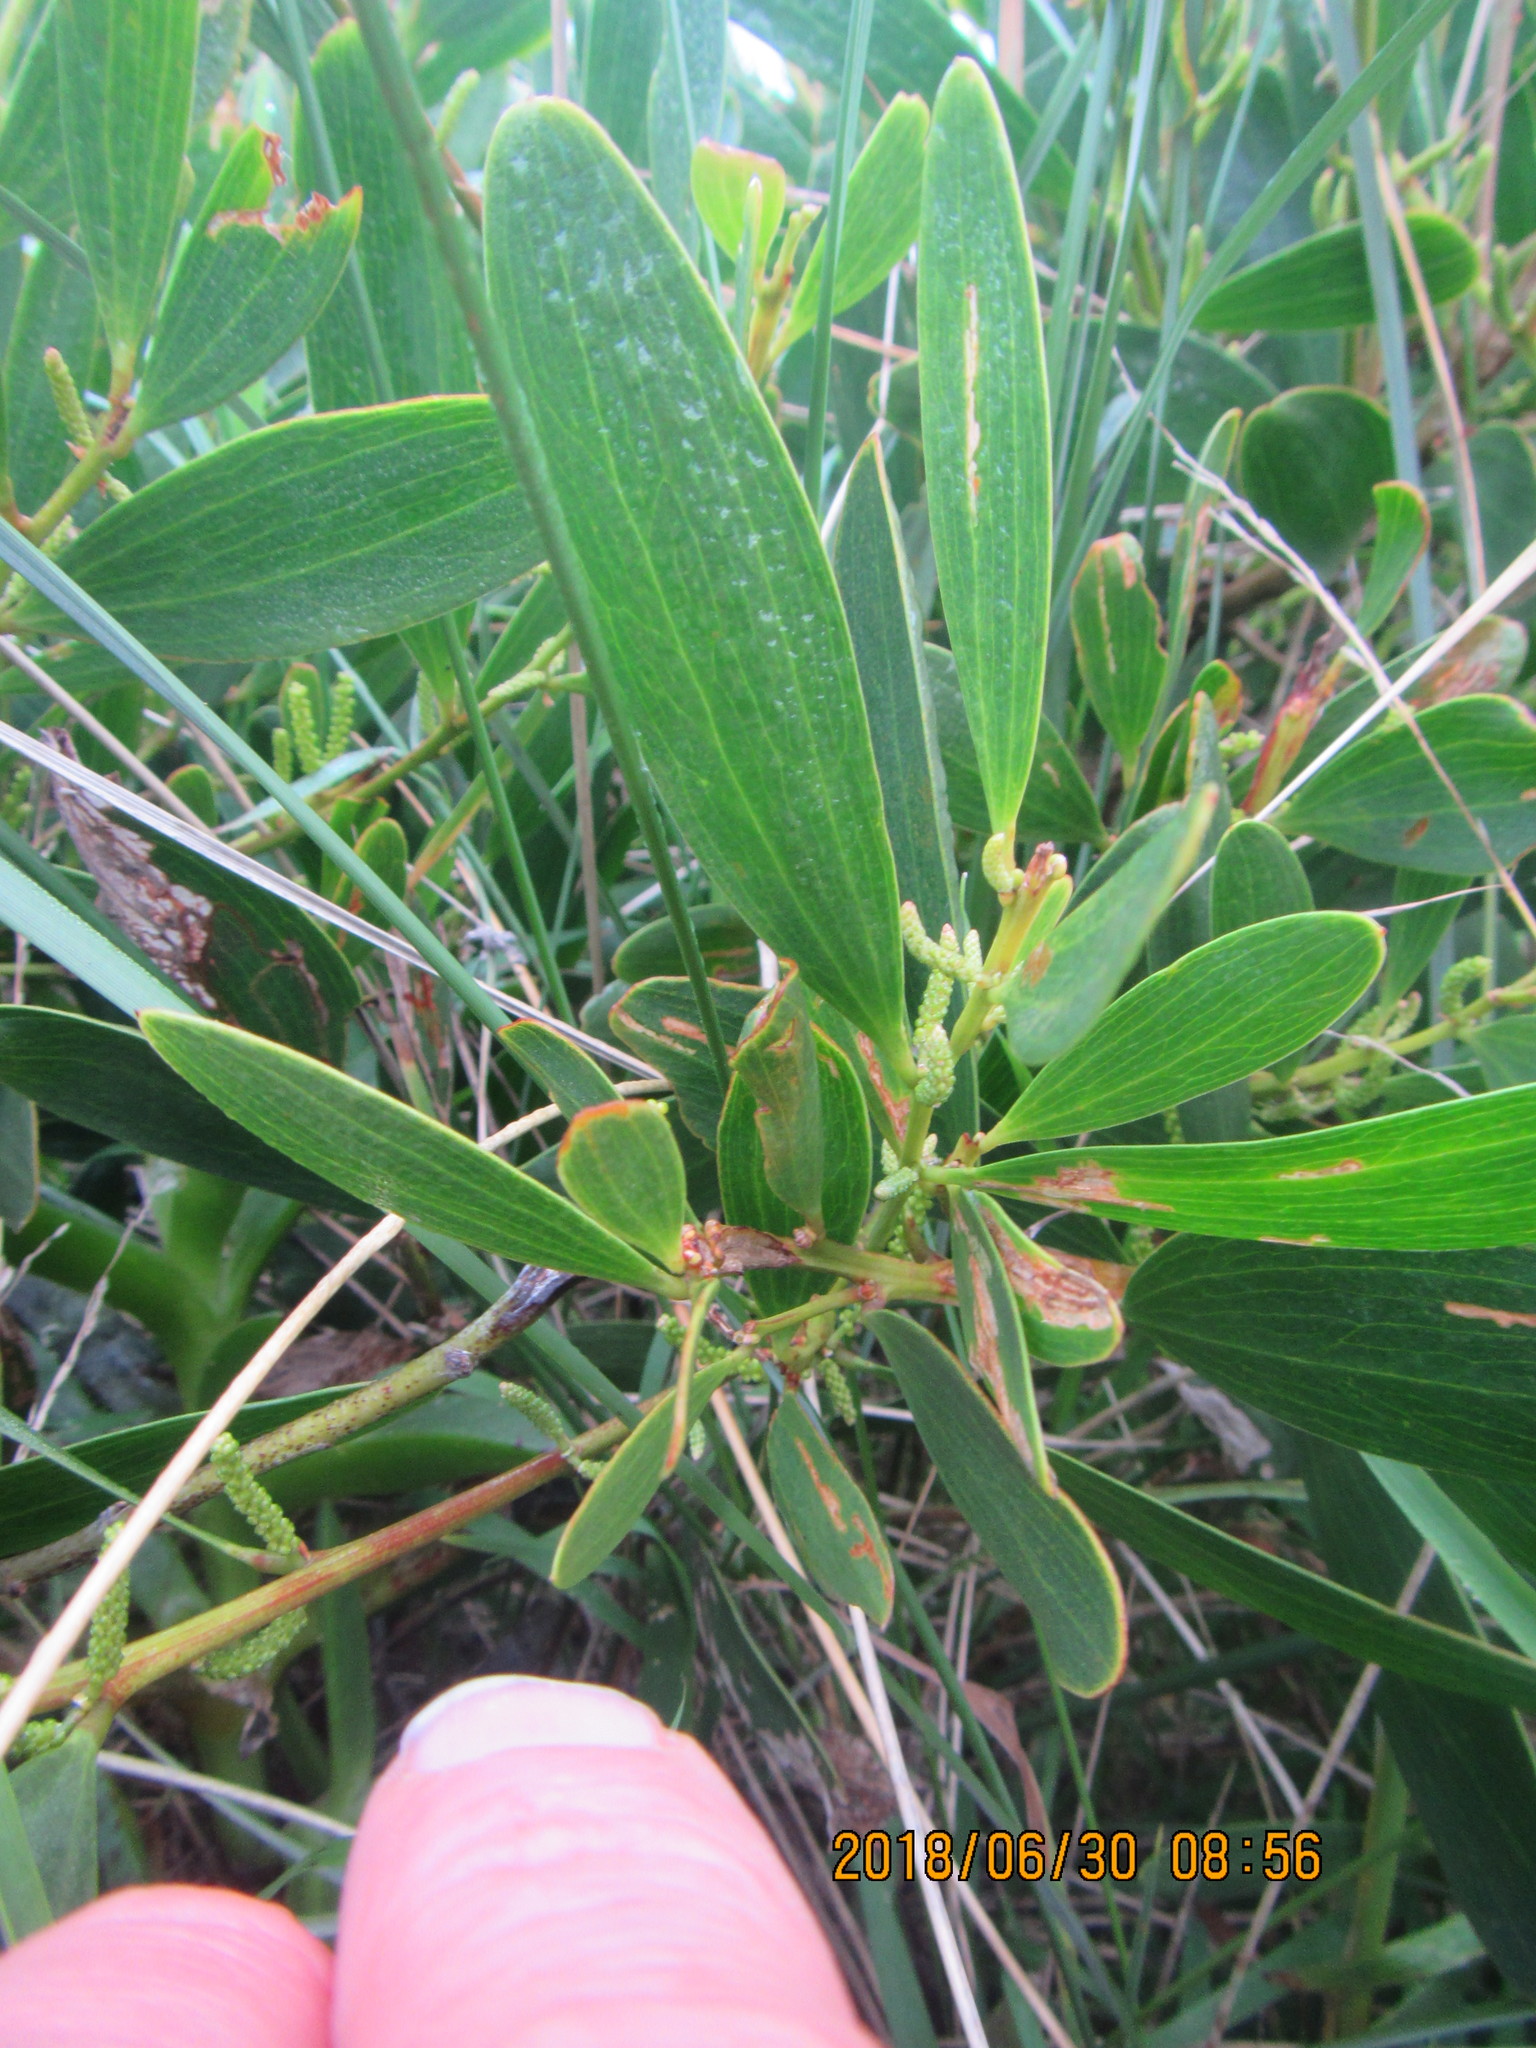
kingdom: Plantae
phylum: Tracheophyta
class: Magnoliopsida
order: Fabales
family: Fabaceae
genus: Acacia
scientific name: Acacia longifolia
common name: Sydney golden wattle
